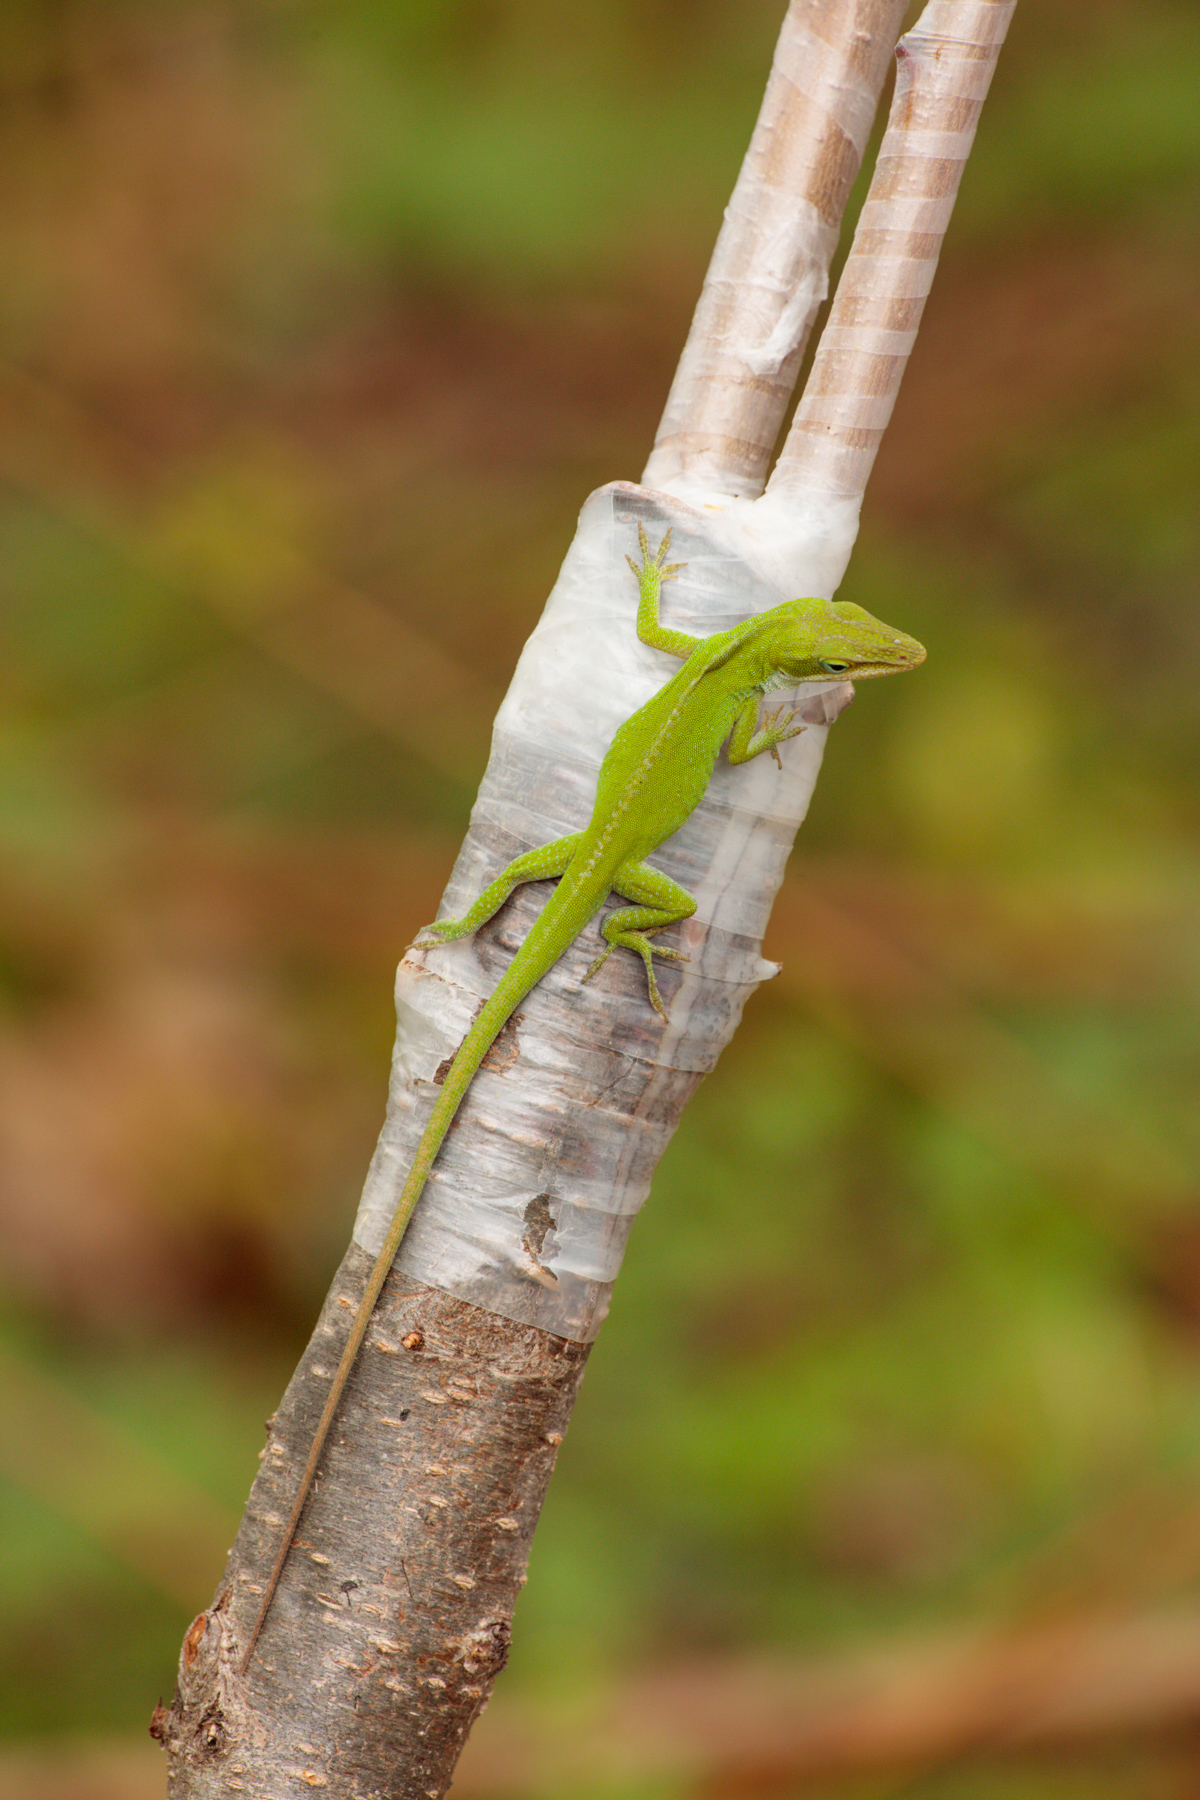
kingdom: Animalia
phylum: Chordata
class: Squamata
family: Dactyloidae
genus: Anolis
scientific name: Anolis carolinensis
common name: Green anole
